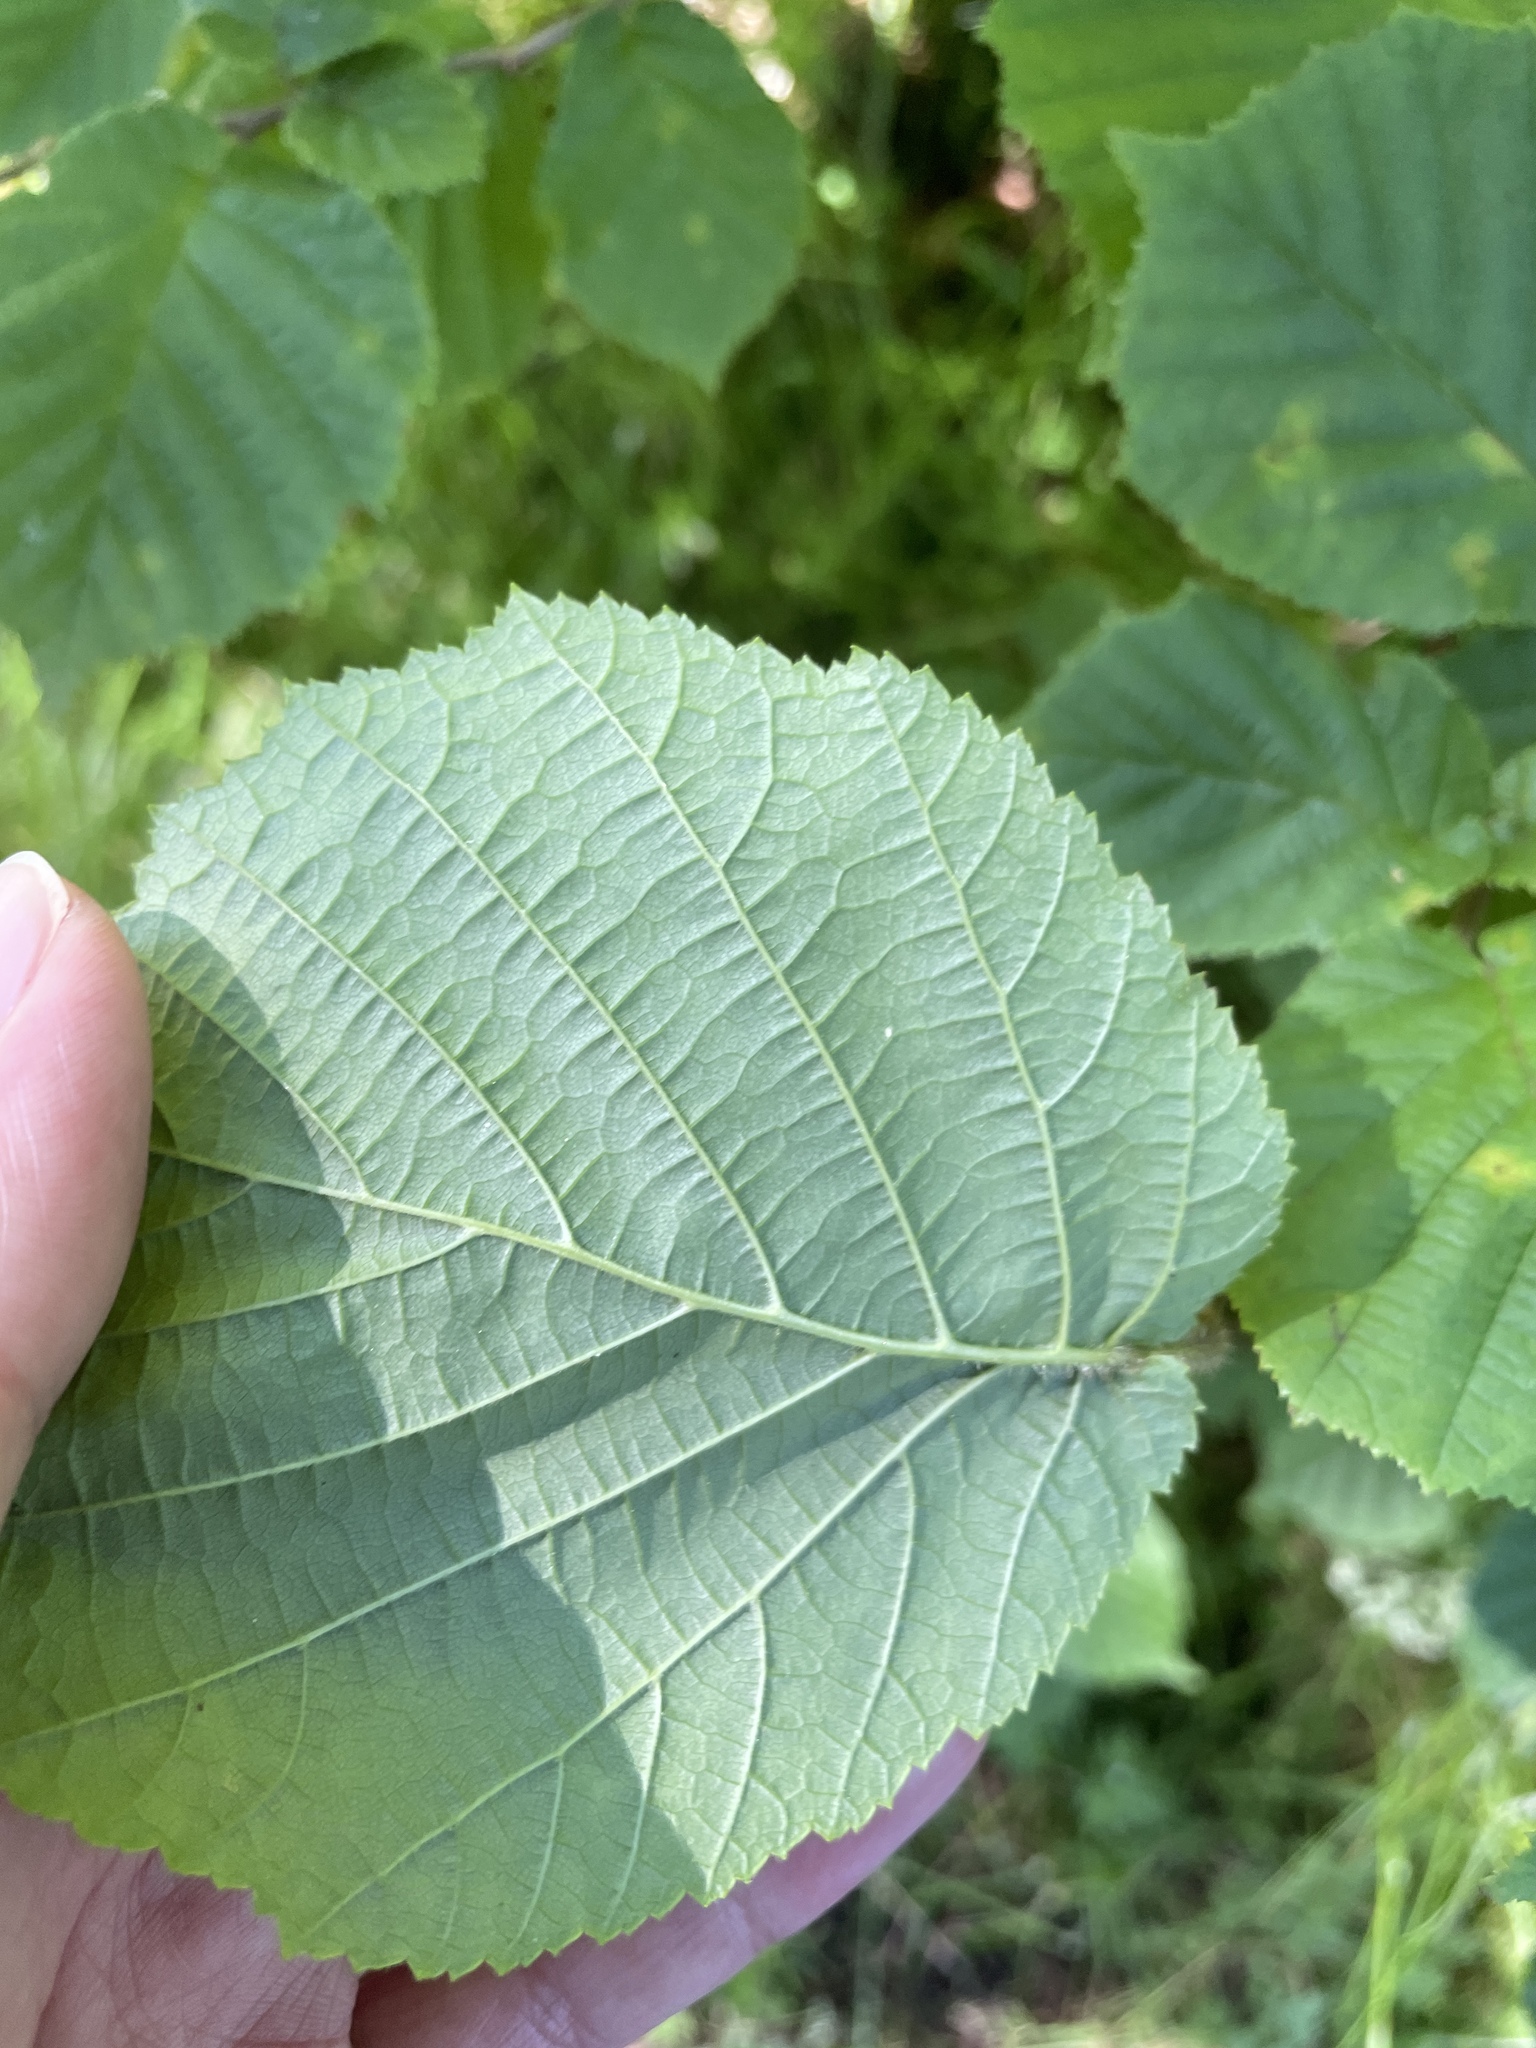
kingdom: Plantae
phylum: Tracheophyta
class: Magnoliopsida
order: Fagales
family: Betulaceae
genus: Corylus
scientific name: Corylus avellana
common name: European hazel
